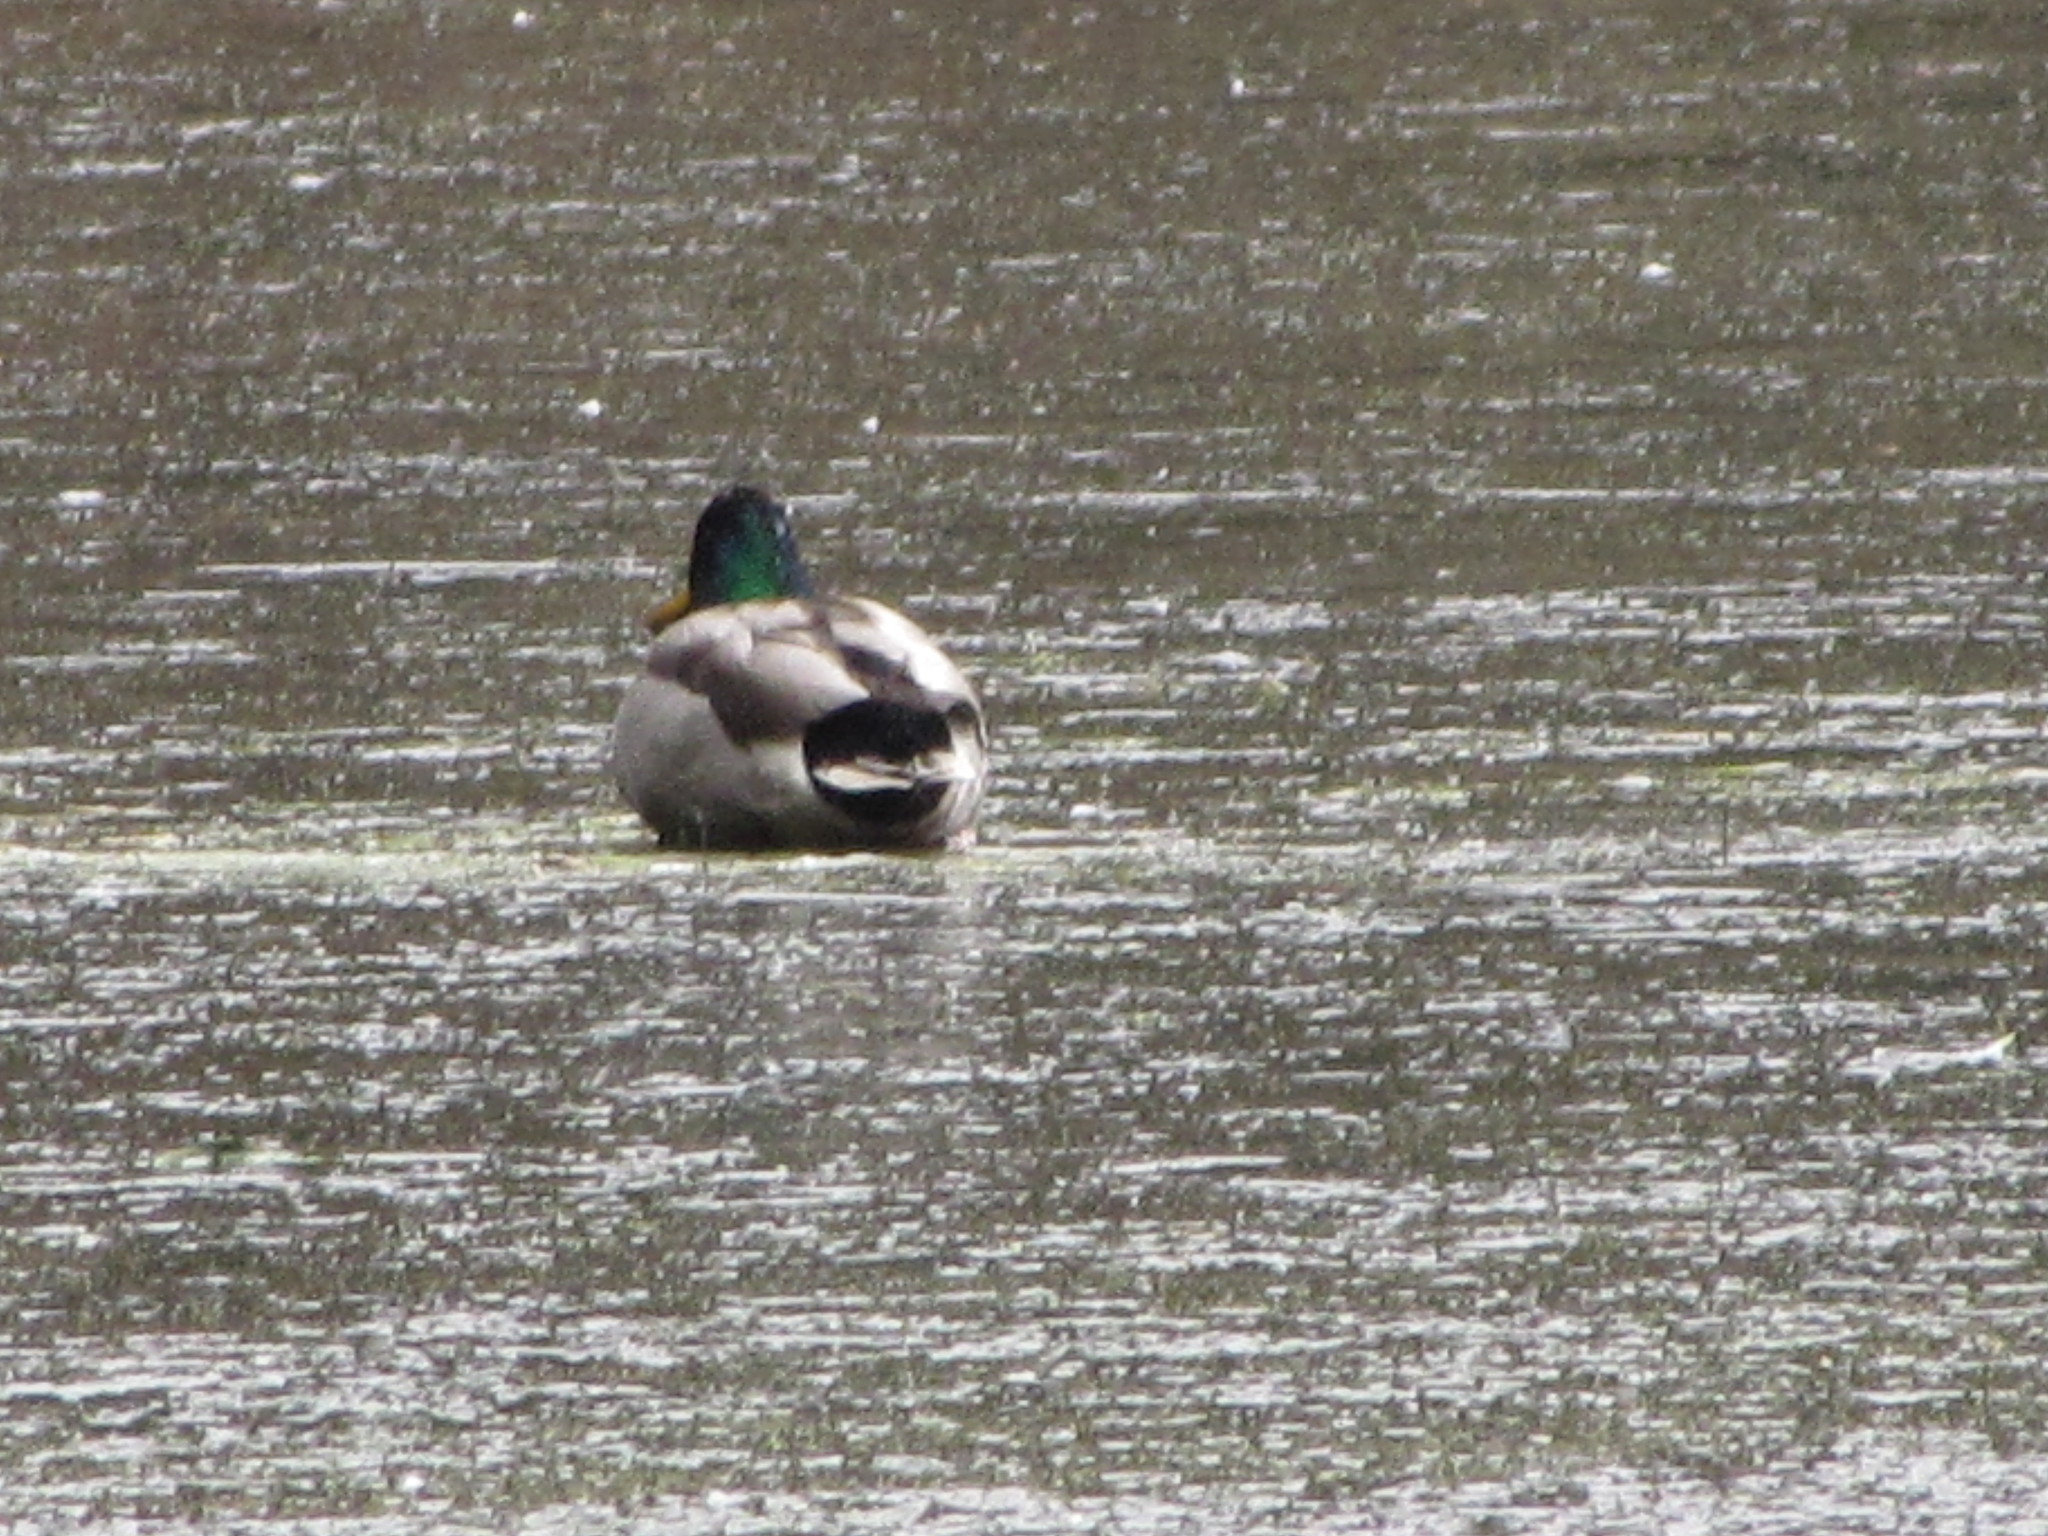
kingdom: Animalia
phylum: Chordata
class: Aves
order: Anseriformes
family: Anatidae
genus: Anas
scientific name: Anas platyrhynchos
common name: Mallard
